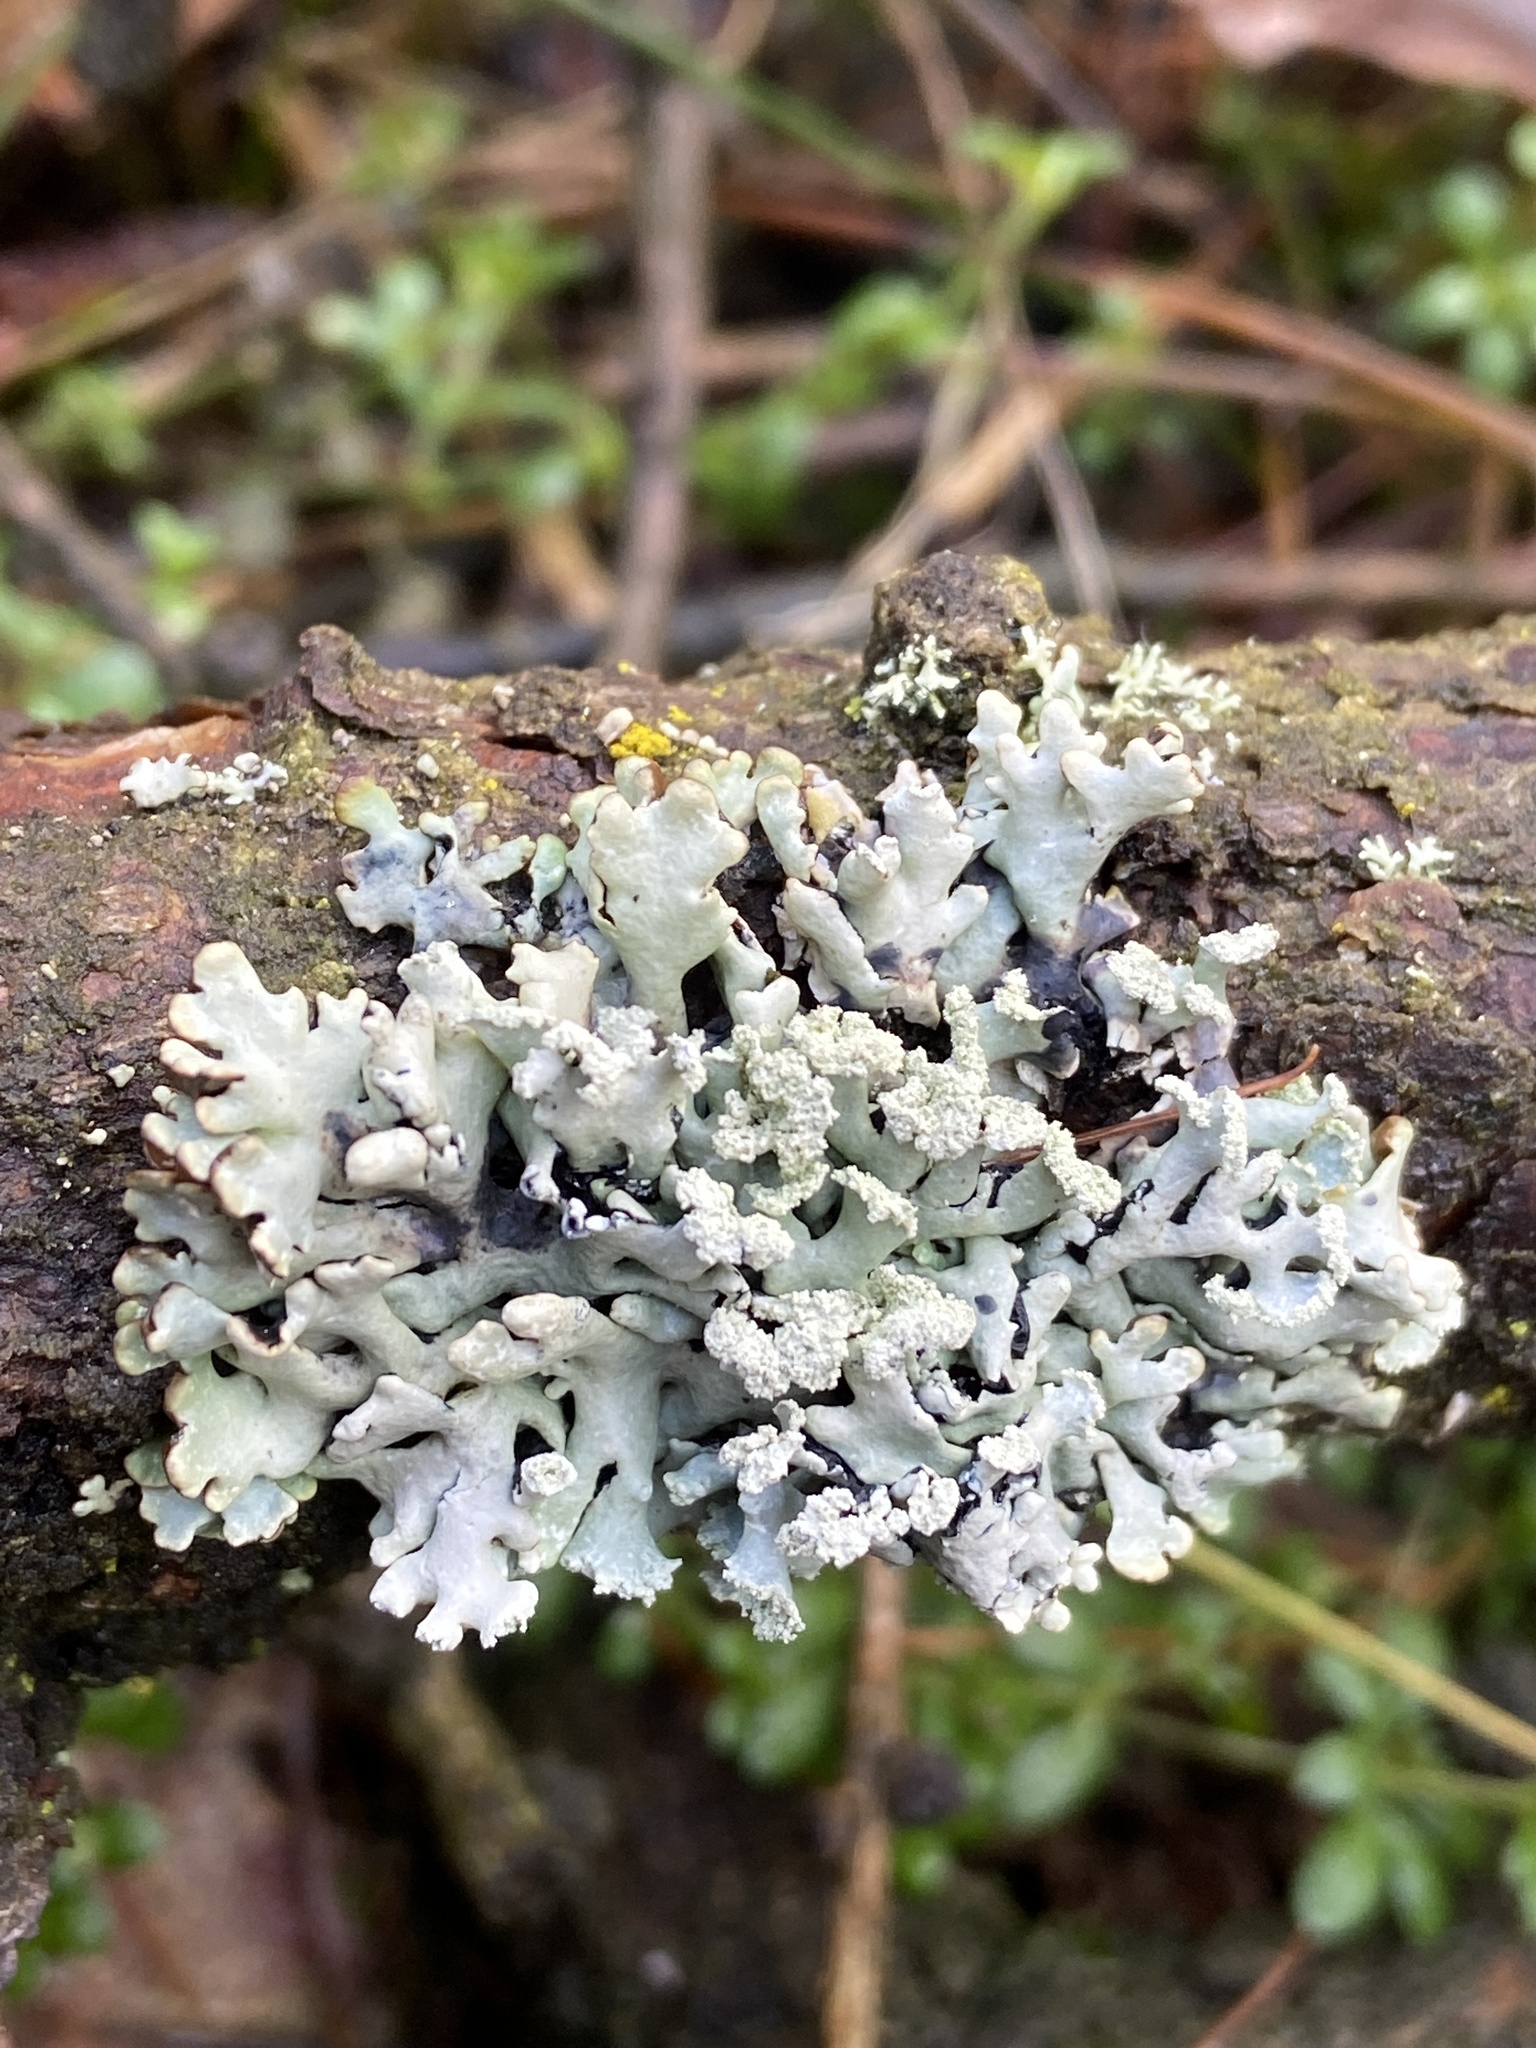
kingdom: Fungi
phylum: Ascomycota
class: Lecanoromycetes
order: Lecanorales
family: Parmeliaceae
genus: Hypogymnia
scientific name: Hypogymnia physodes
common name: Dark crottle
